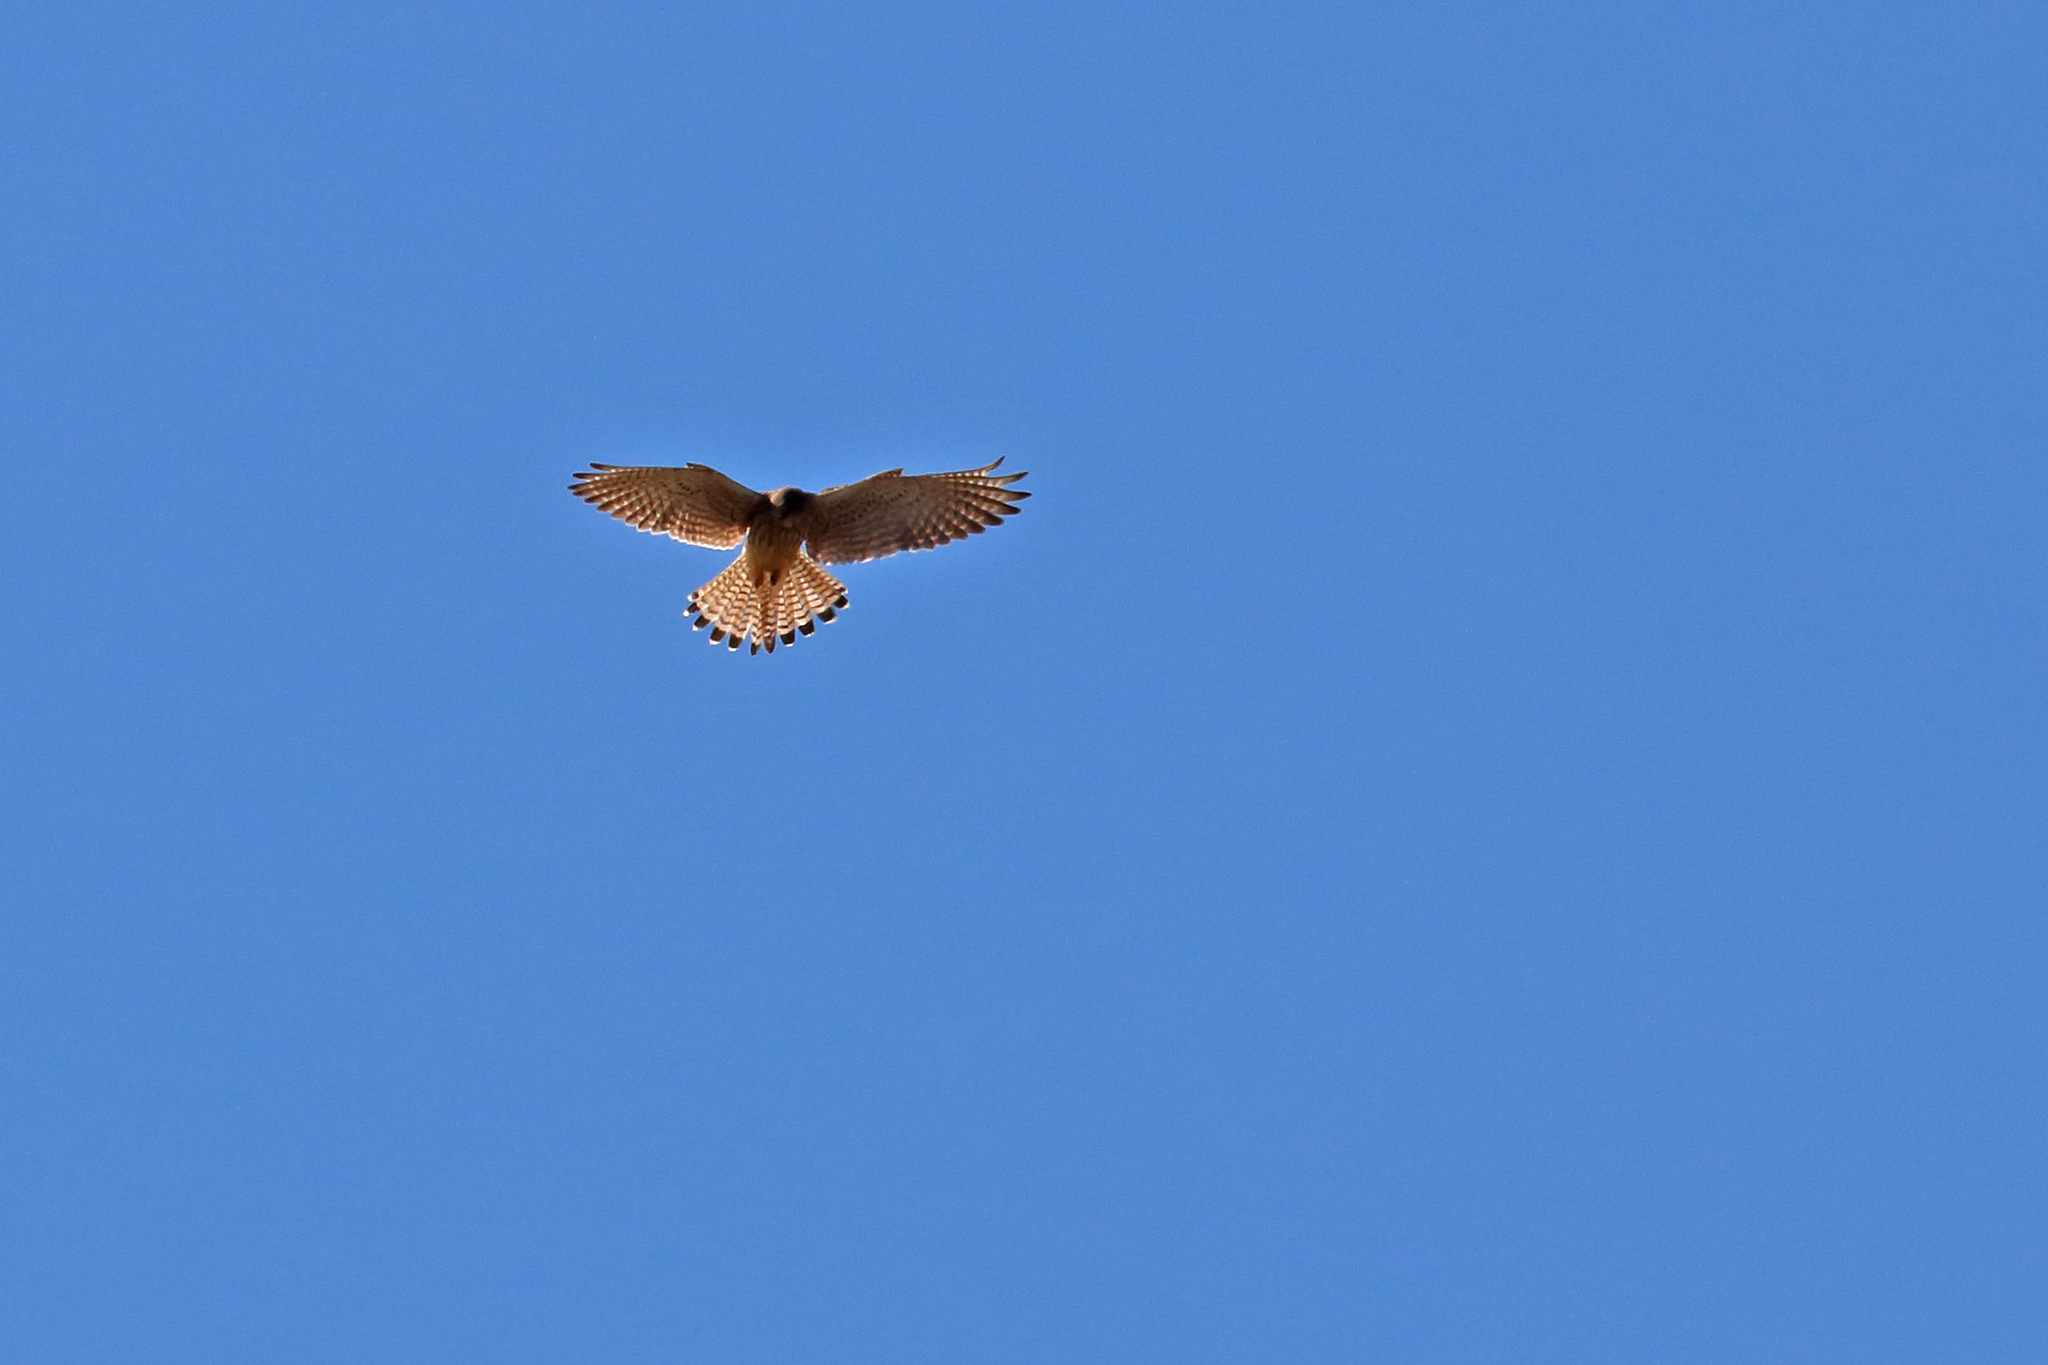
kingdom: Animalia
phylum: Chordata
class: Aves
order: Falconiformes
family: Falconidae
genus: Falco
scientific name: Falco tinnunculus
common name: Common kestrel
